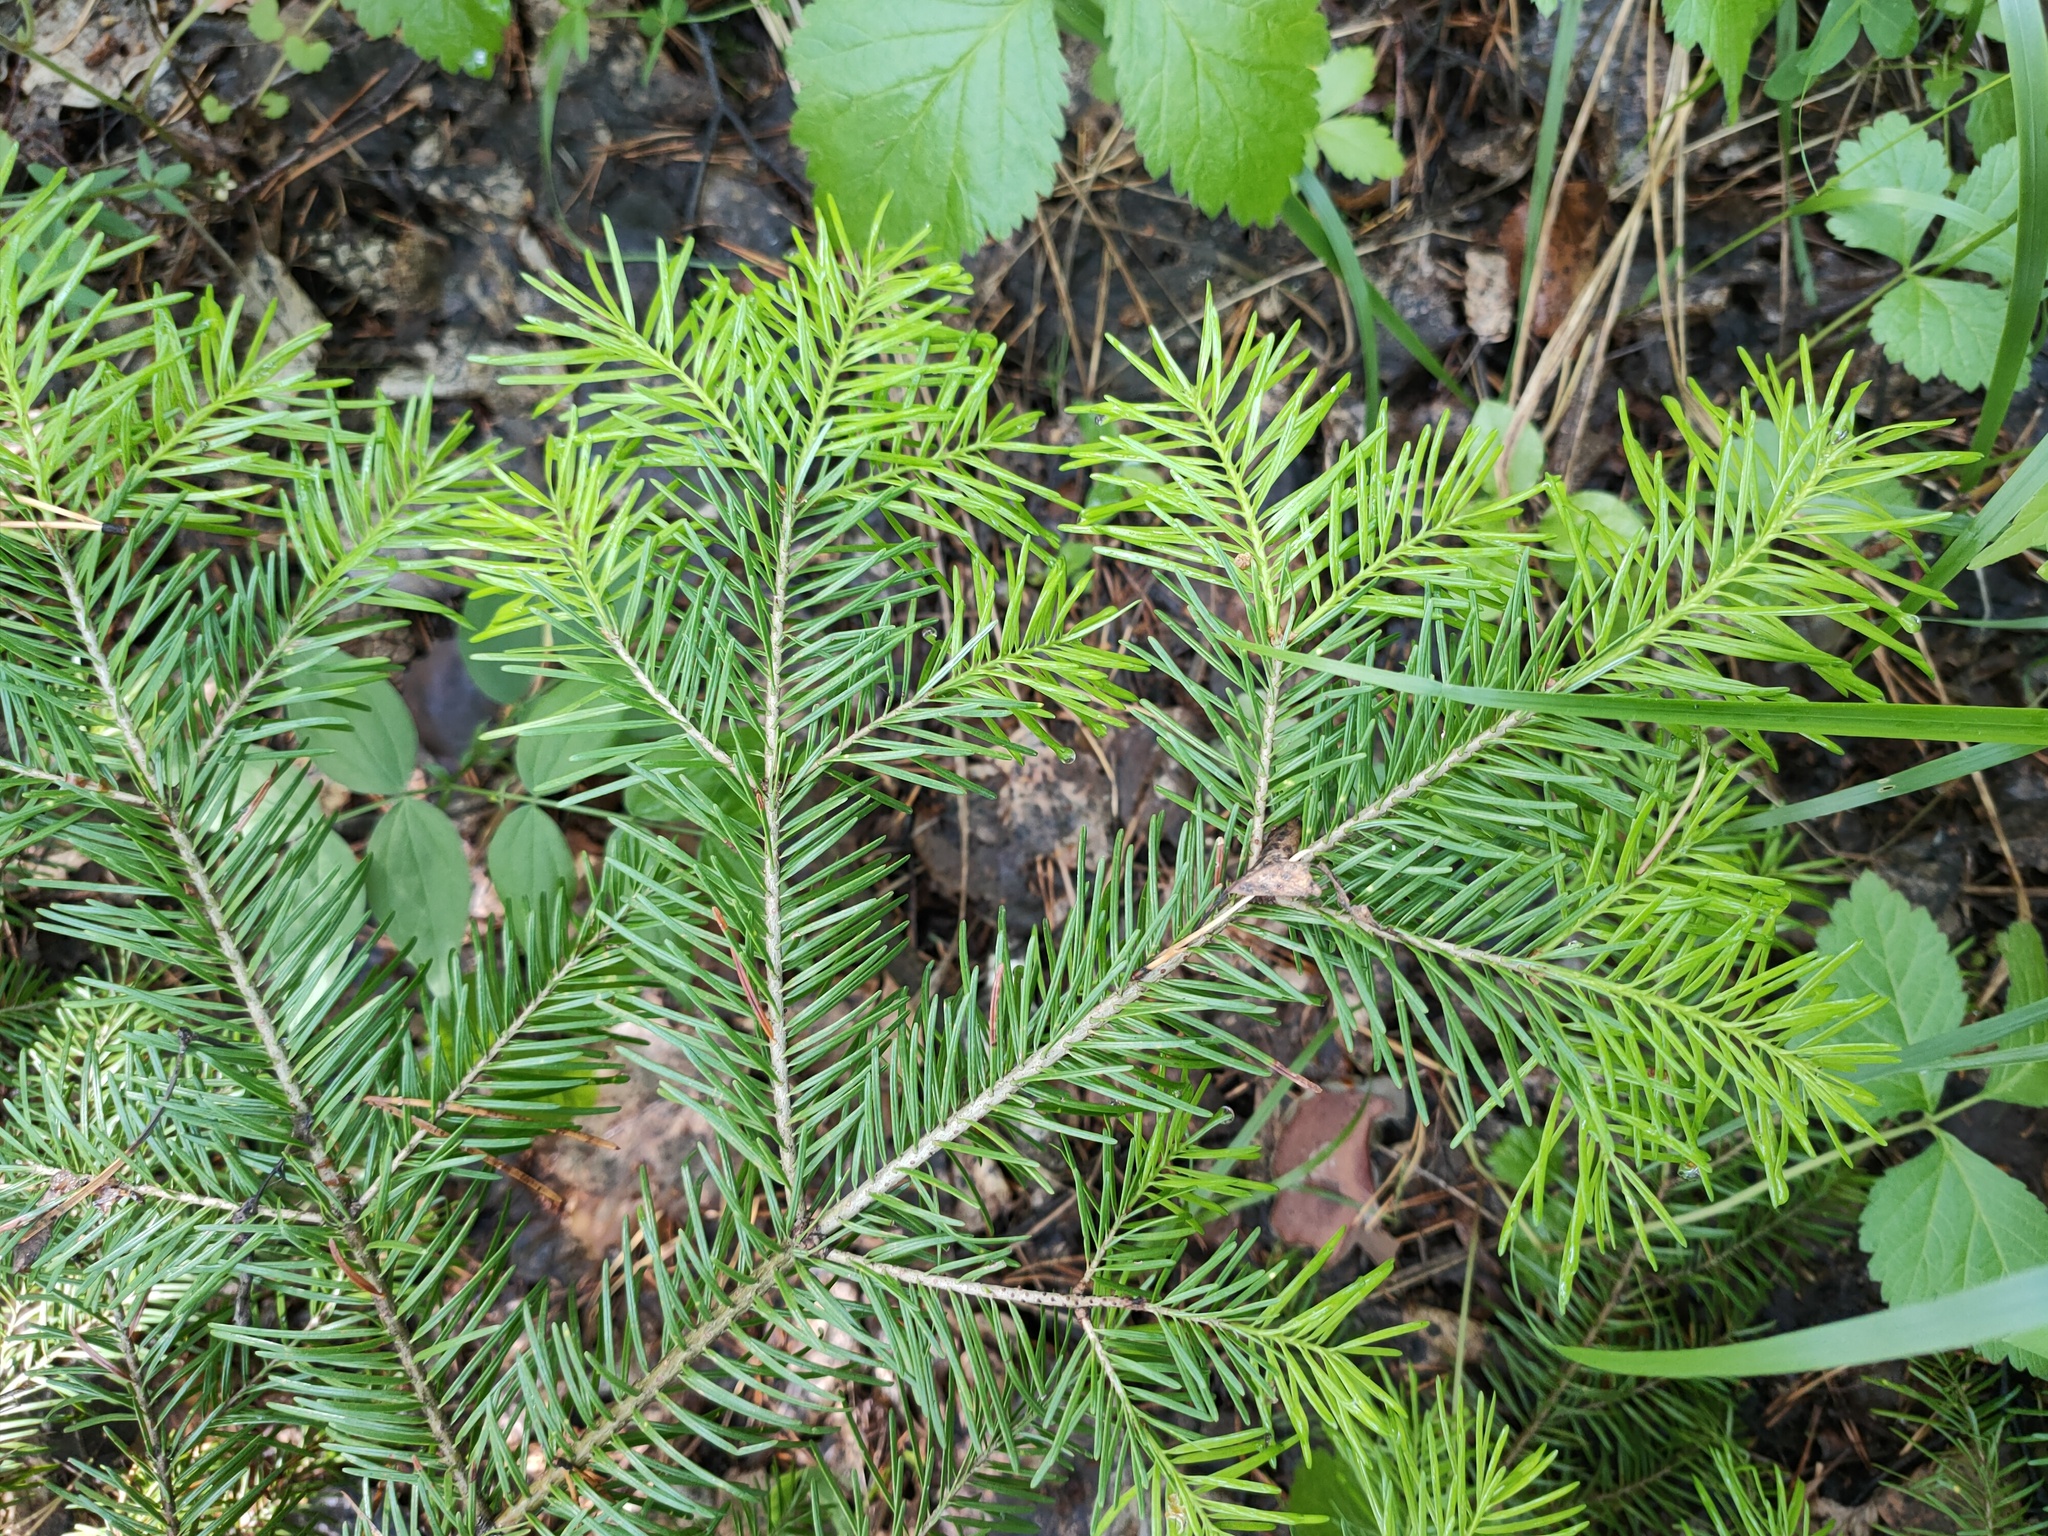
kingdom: Plantae
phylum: Tracheophyta
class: Pinopsida
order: Pinales
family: Pinaceae
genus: Abies
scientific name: Abies sibirica
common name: Siberian fir
